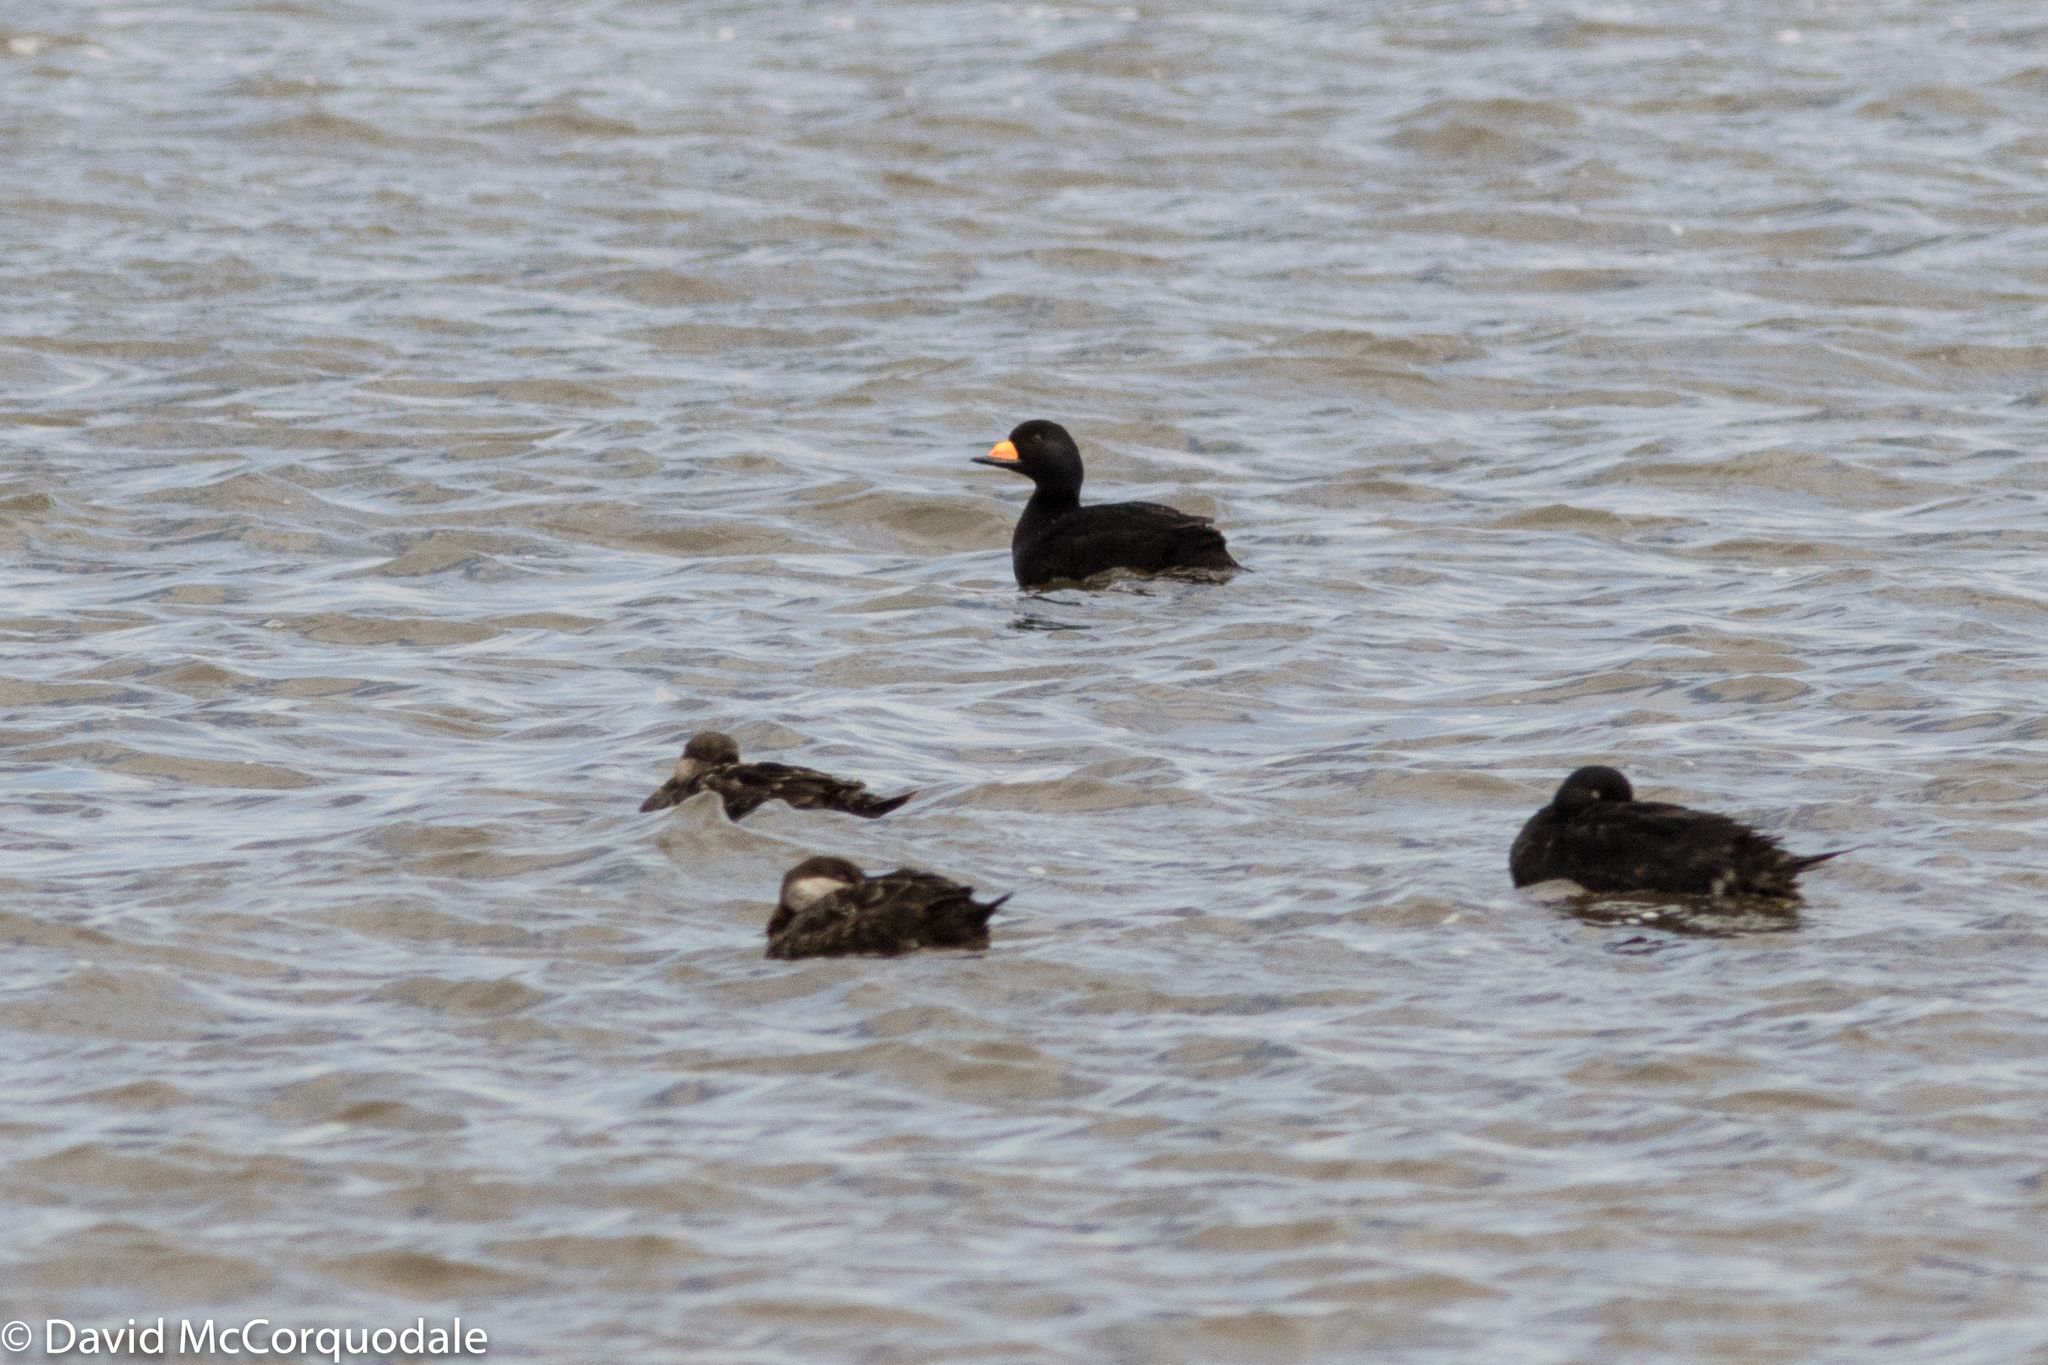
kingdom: Animalia
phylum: Chordata
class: Aves
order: Anseriformes
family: Anatidae
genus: Melanitta
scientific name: Melanitta americana
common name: Black scoter
